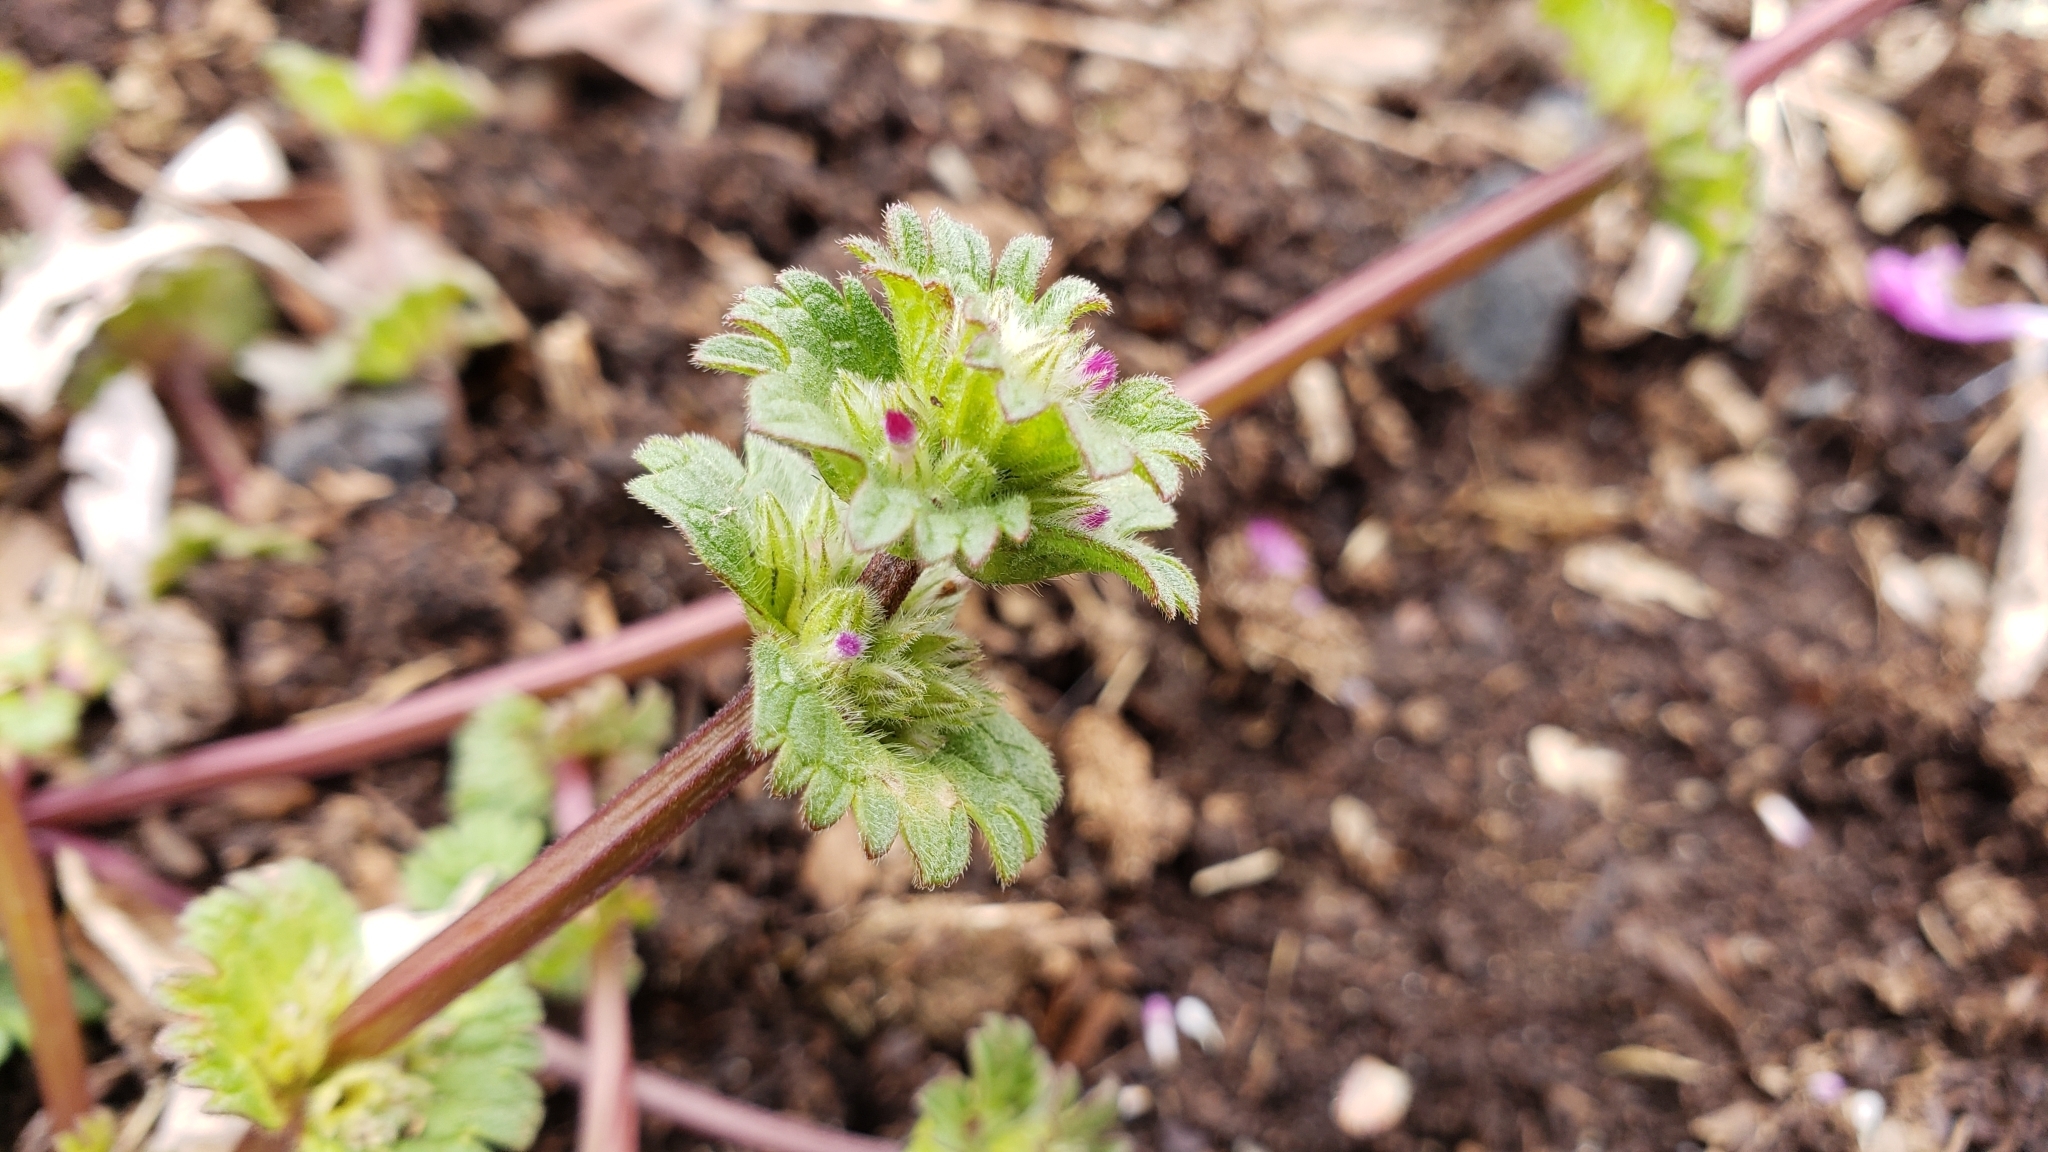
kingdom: Plantae
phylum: Tracheophyta
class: Magnoliopsida
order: Lamiales
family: Lamiaceae
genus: Lamium
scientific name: Lamium amplexicaule
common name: Henbit dead-nettle
